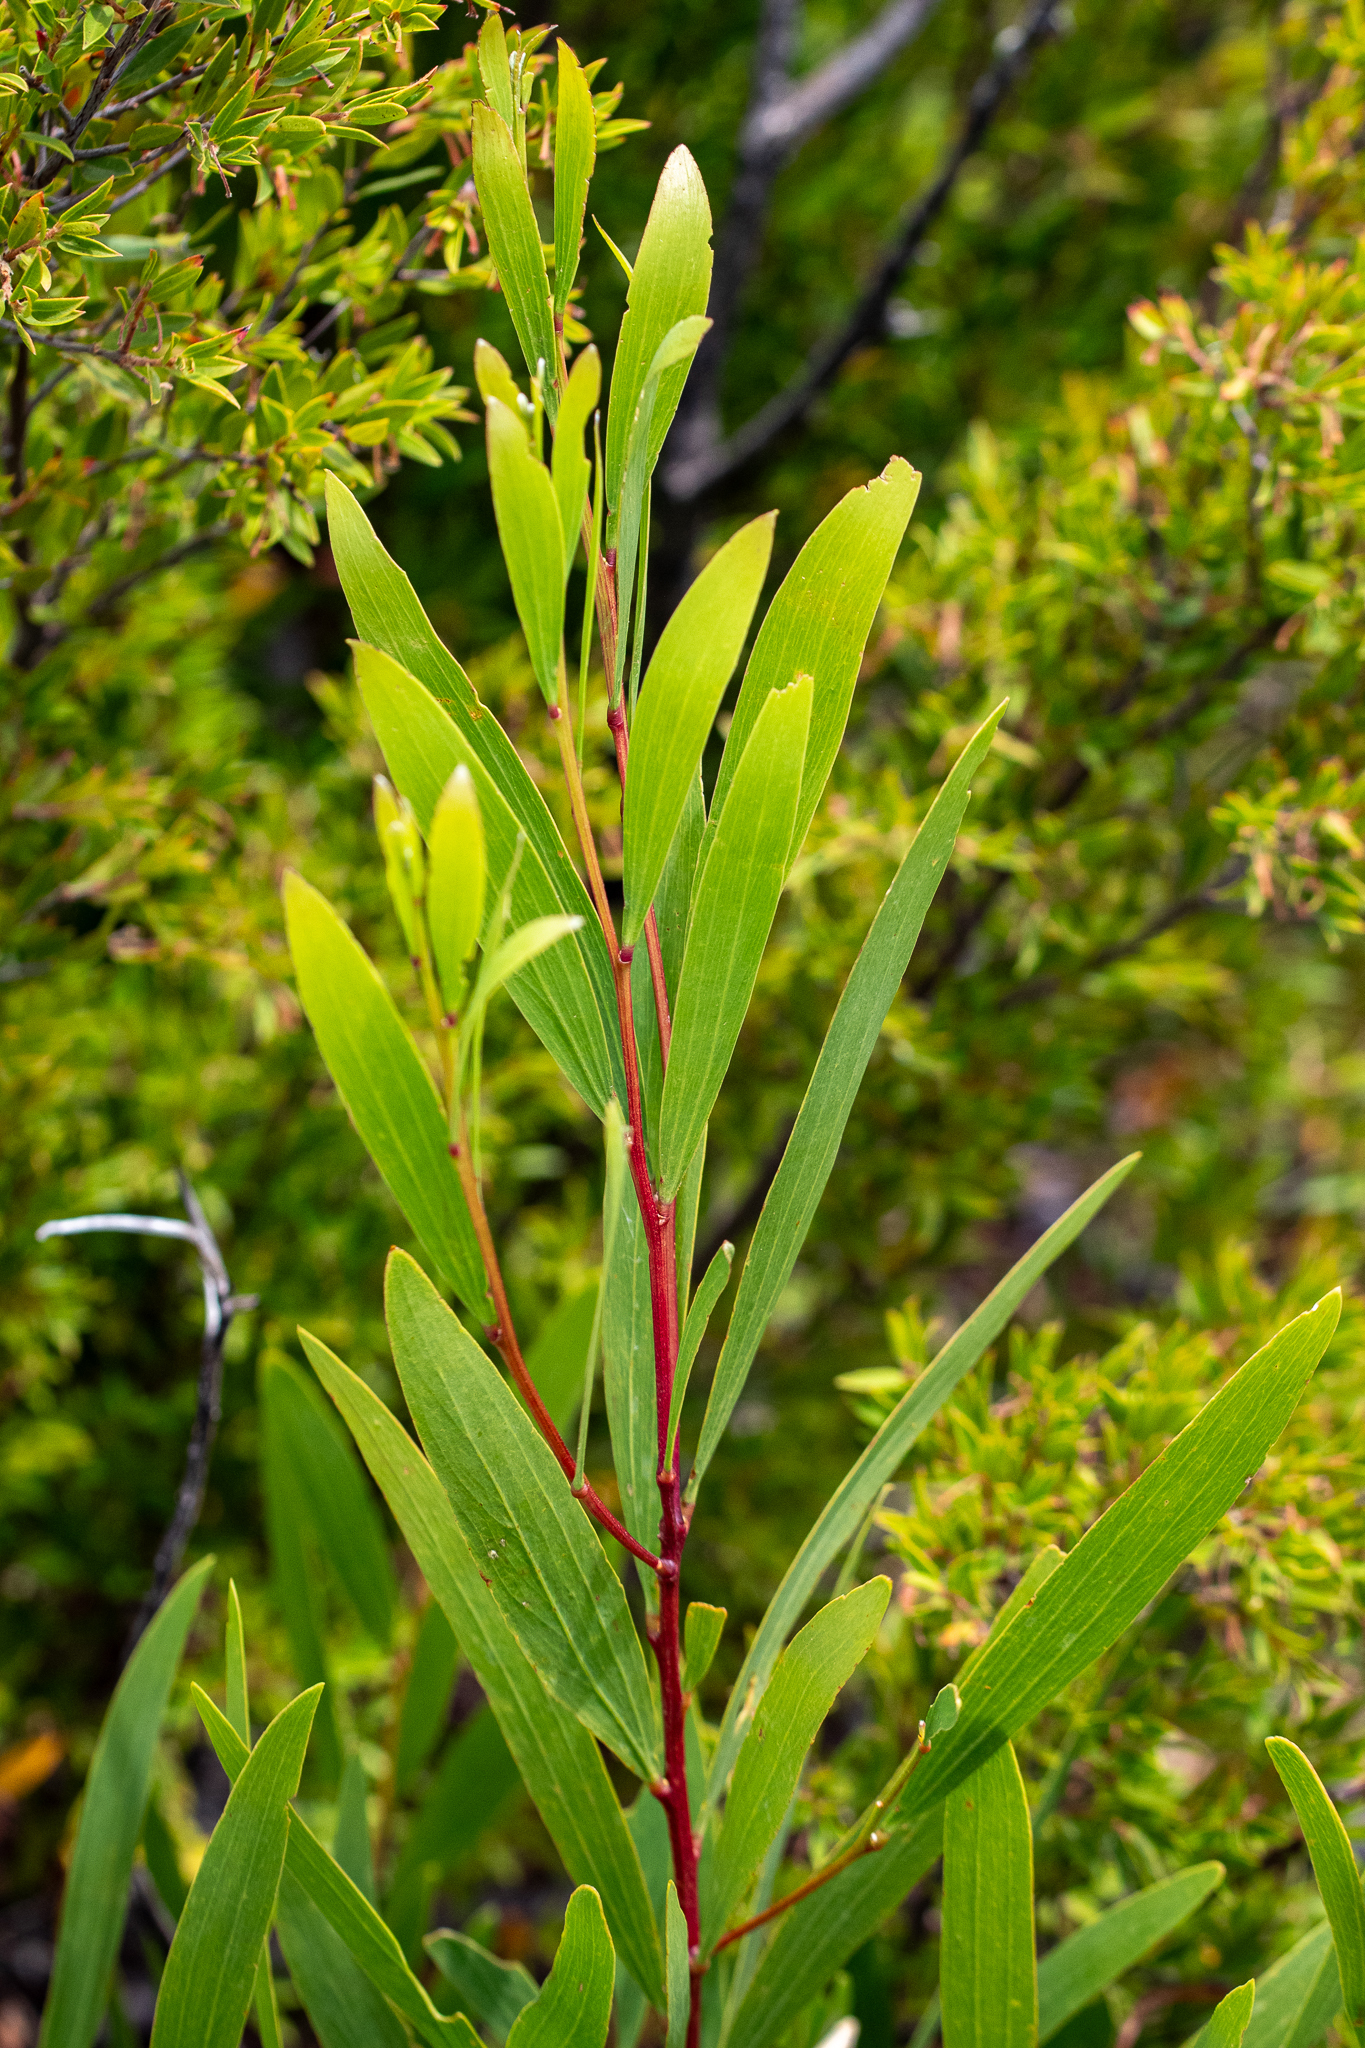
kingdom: Plantae
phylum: Tracheophyta
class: Magnoliopsida
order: Fabales
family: Fabaceae
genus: Acacia
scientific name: Acacia longifolia
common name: Sydney golden wattle
